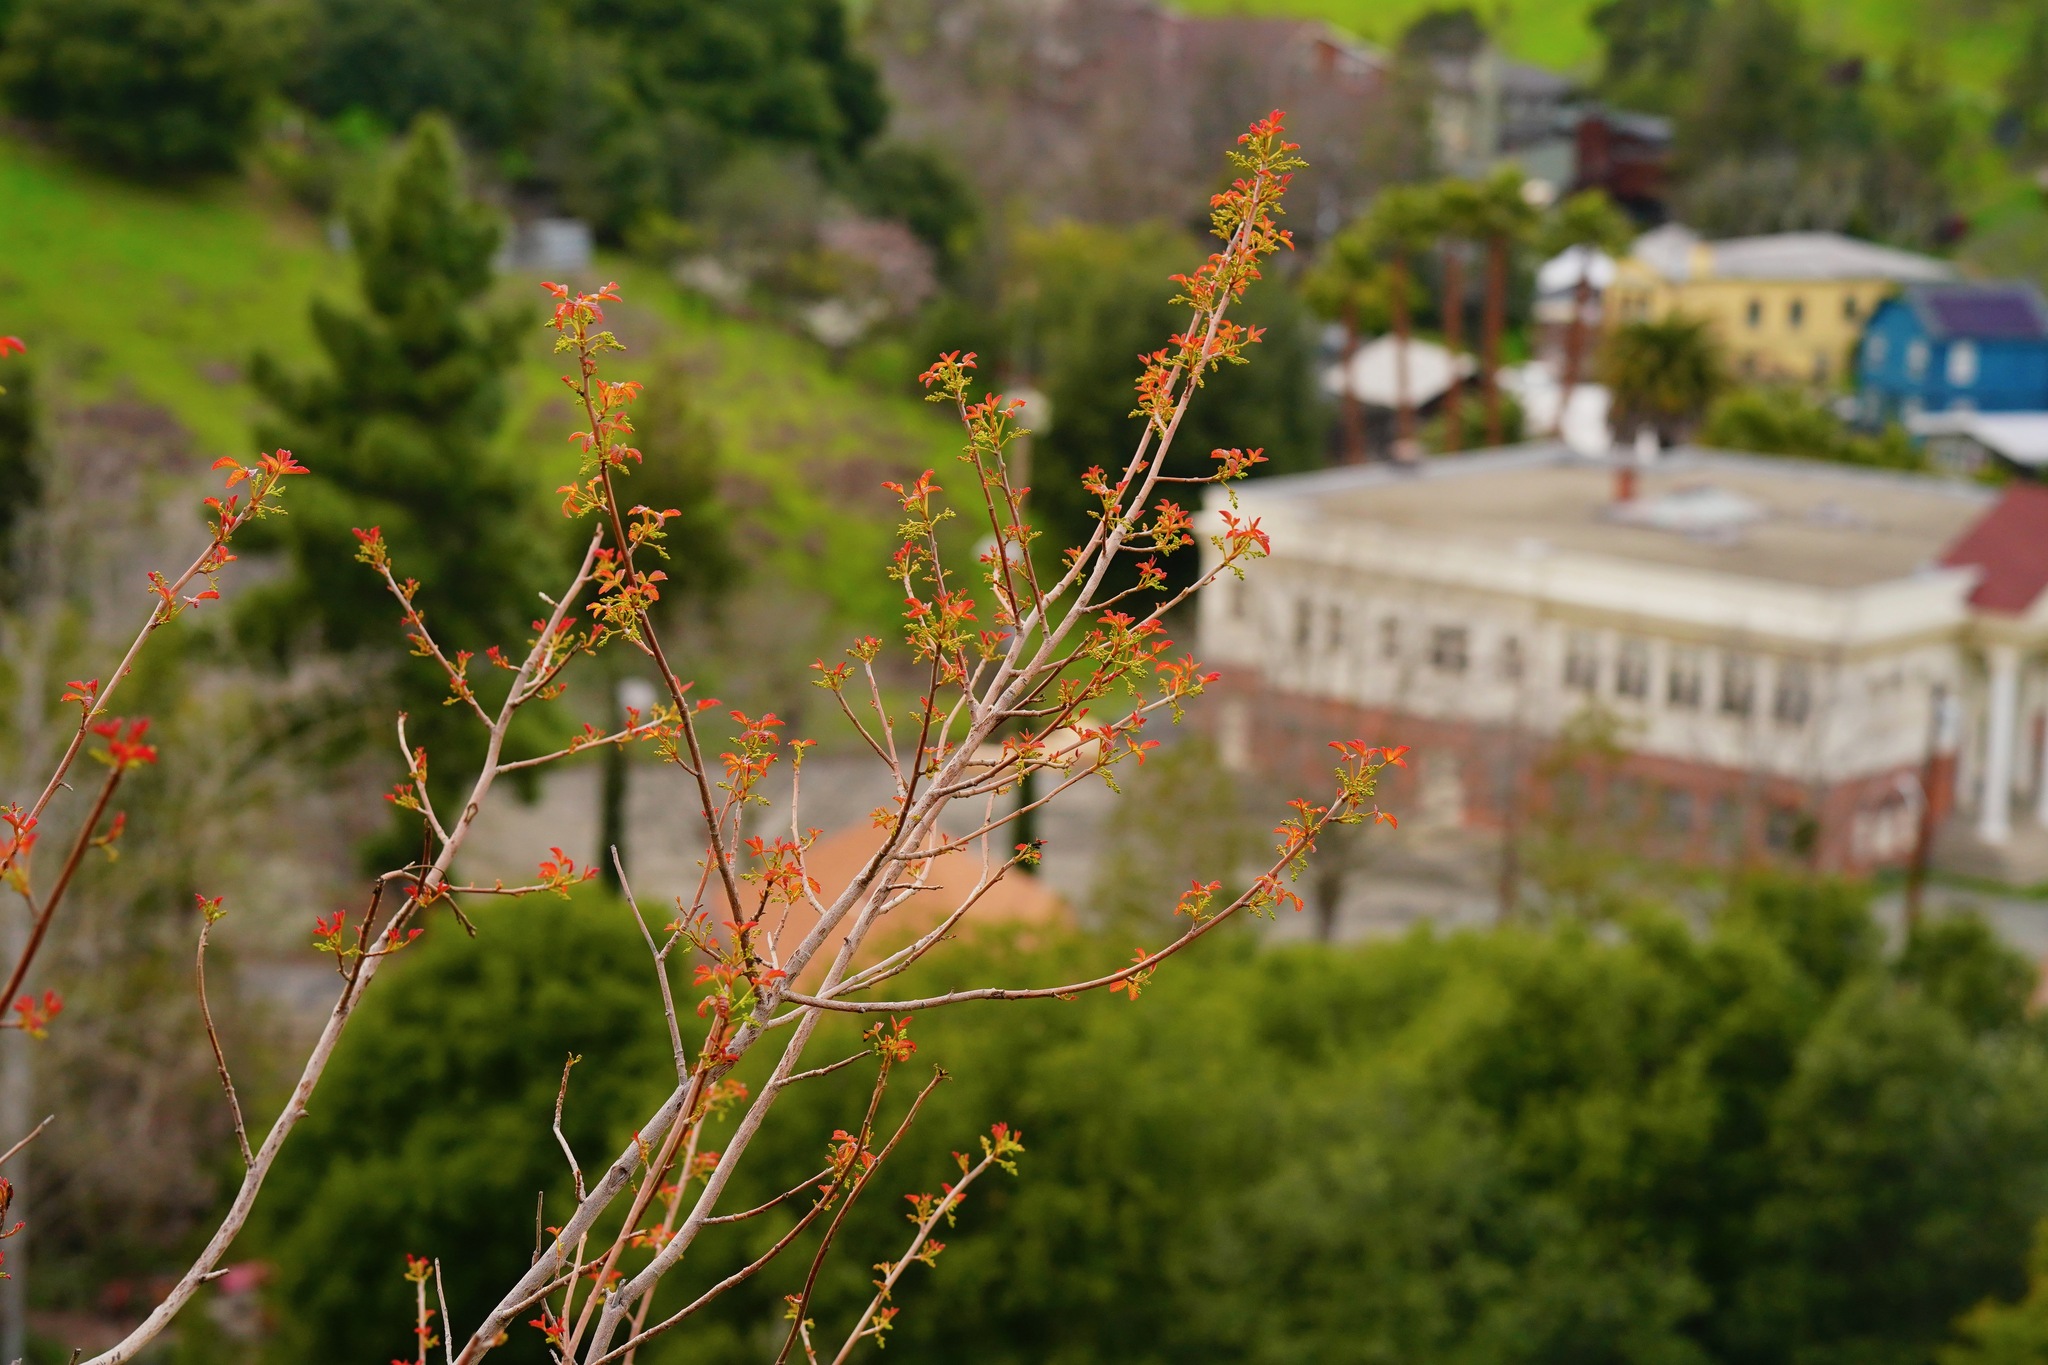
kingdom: Plantae
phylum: Tracheophyta
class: Magnoliopsida
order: Sapindales
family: Anacardiaceae
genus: Toxicodendron
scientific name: Toxicodendron diversilobum
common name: Pacific poison-oak
